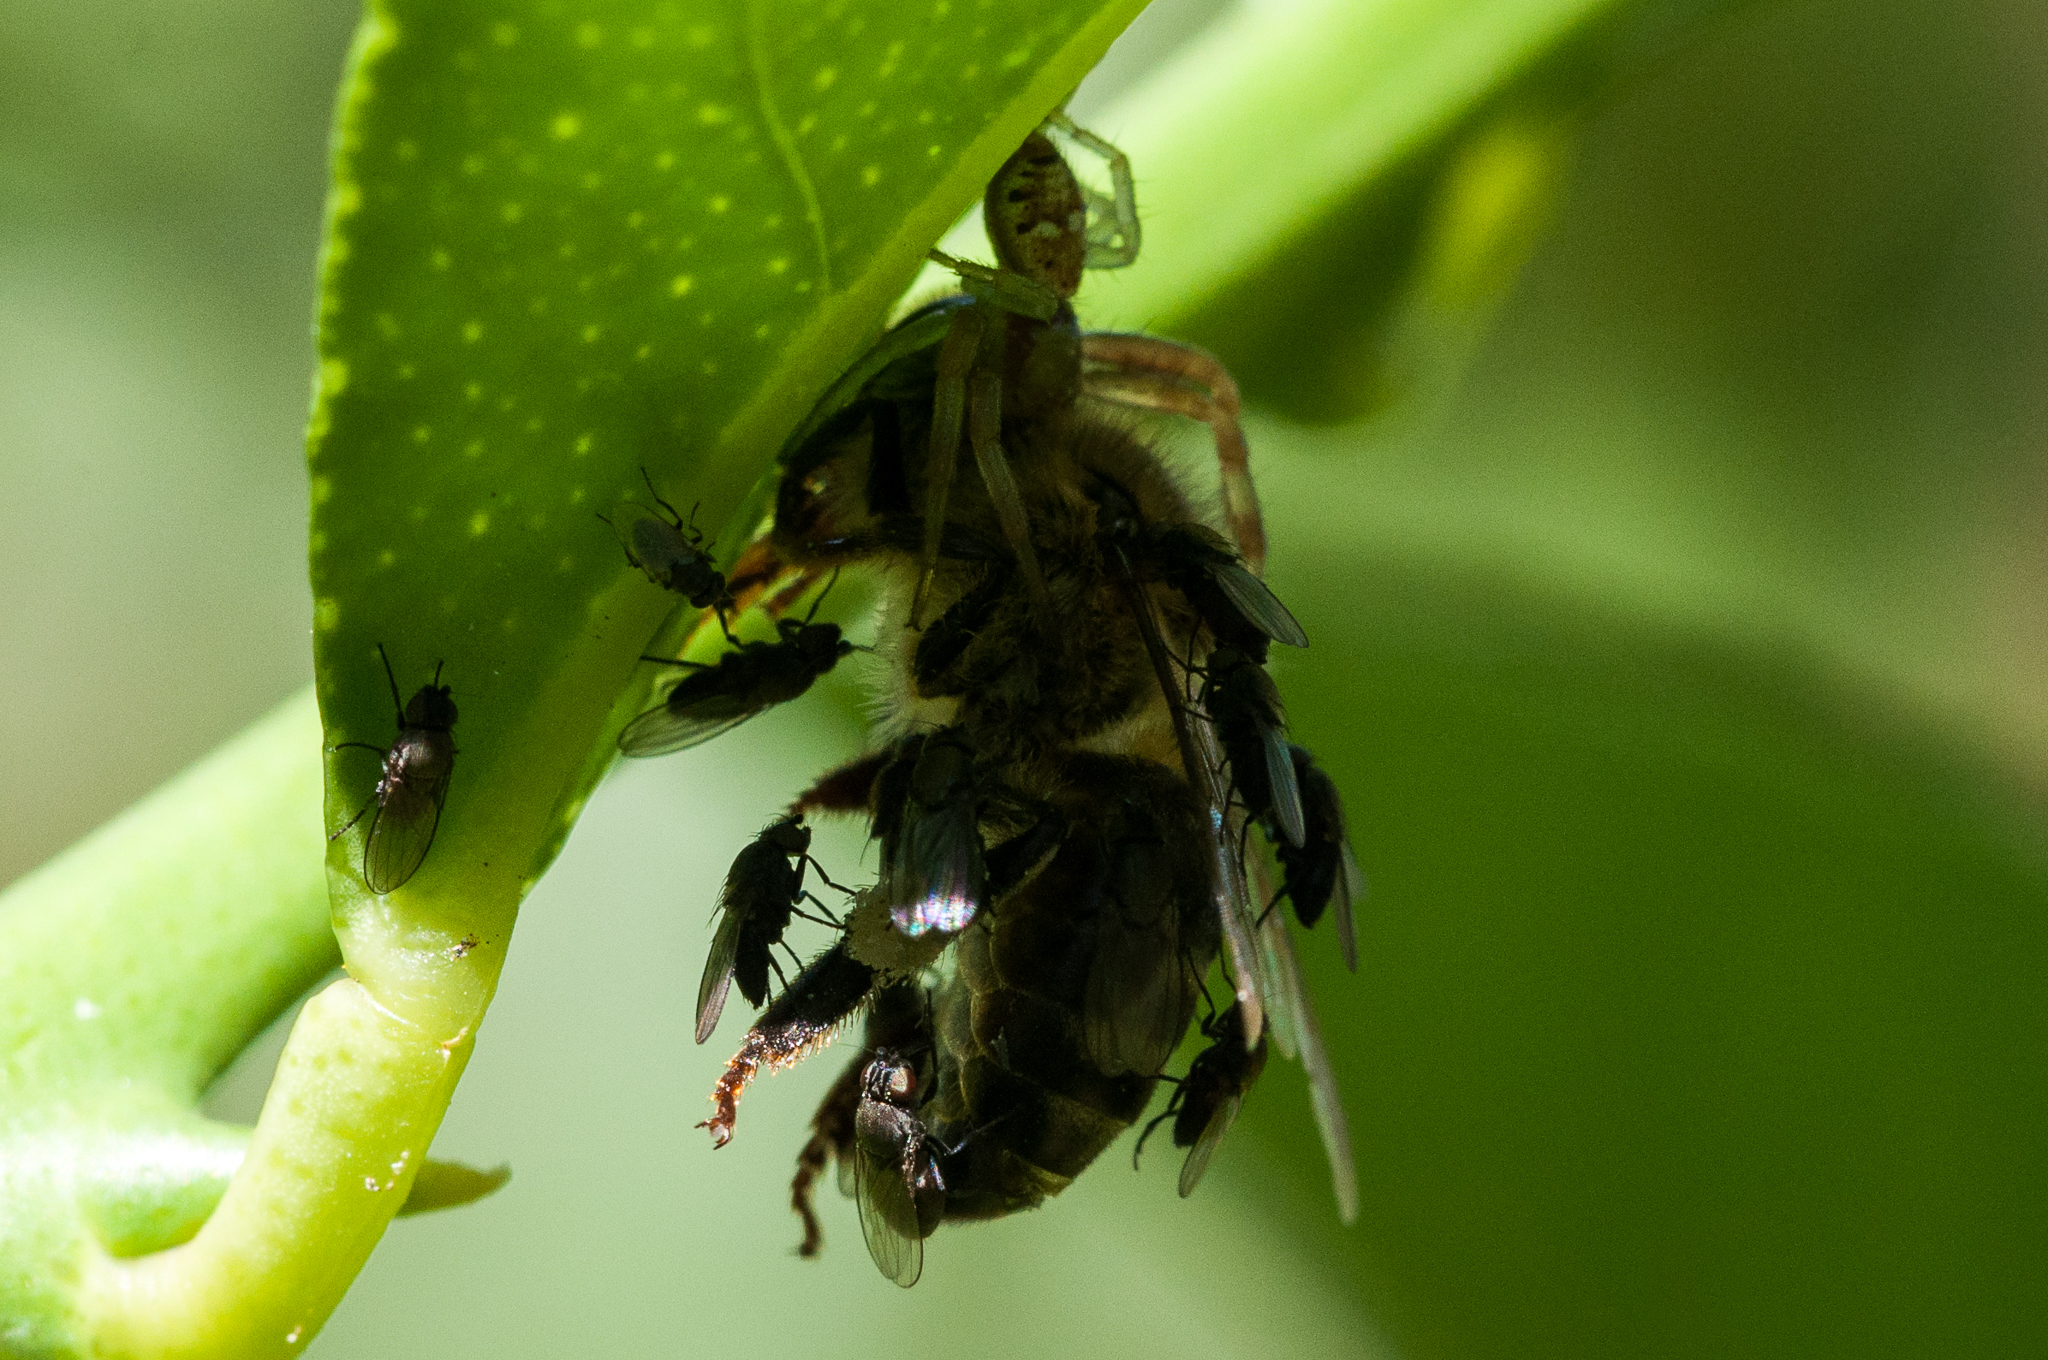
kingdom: Animalia
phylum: Arthropoda
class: Insecta
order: Hymenoptera
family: Apidae
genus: Apis
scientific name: Apis mellifera
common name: Honey bee
